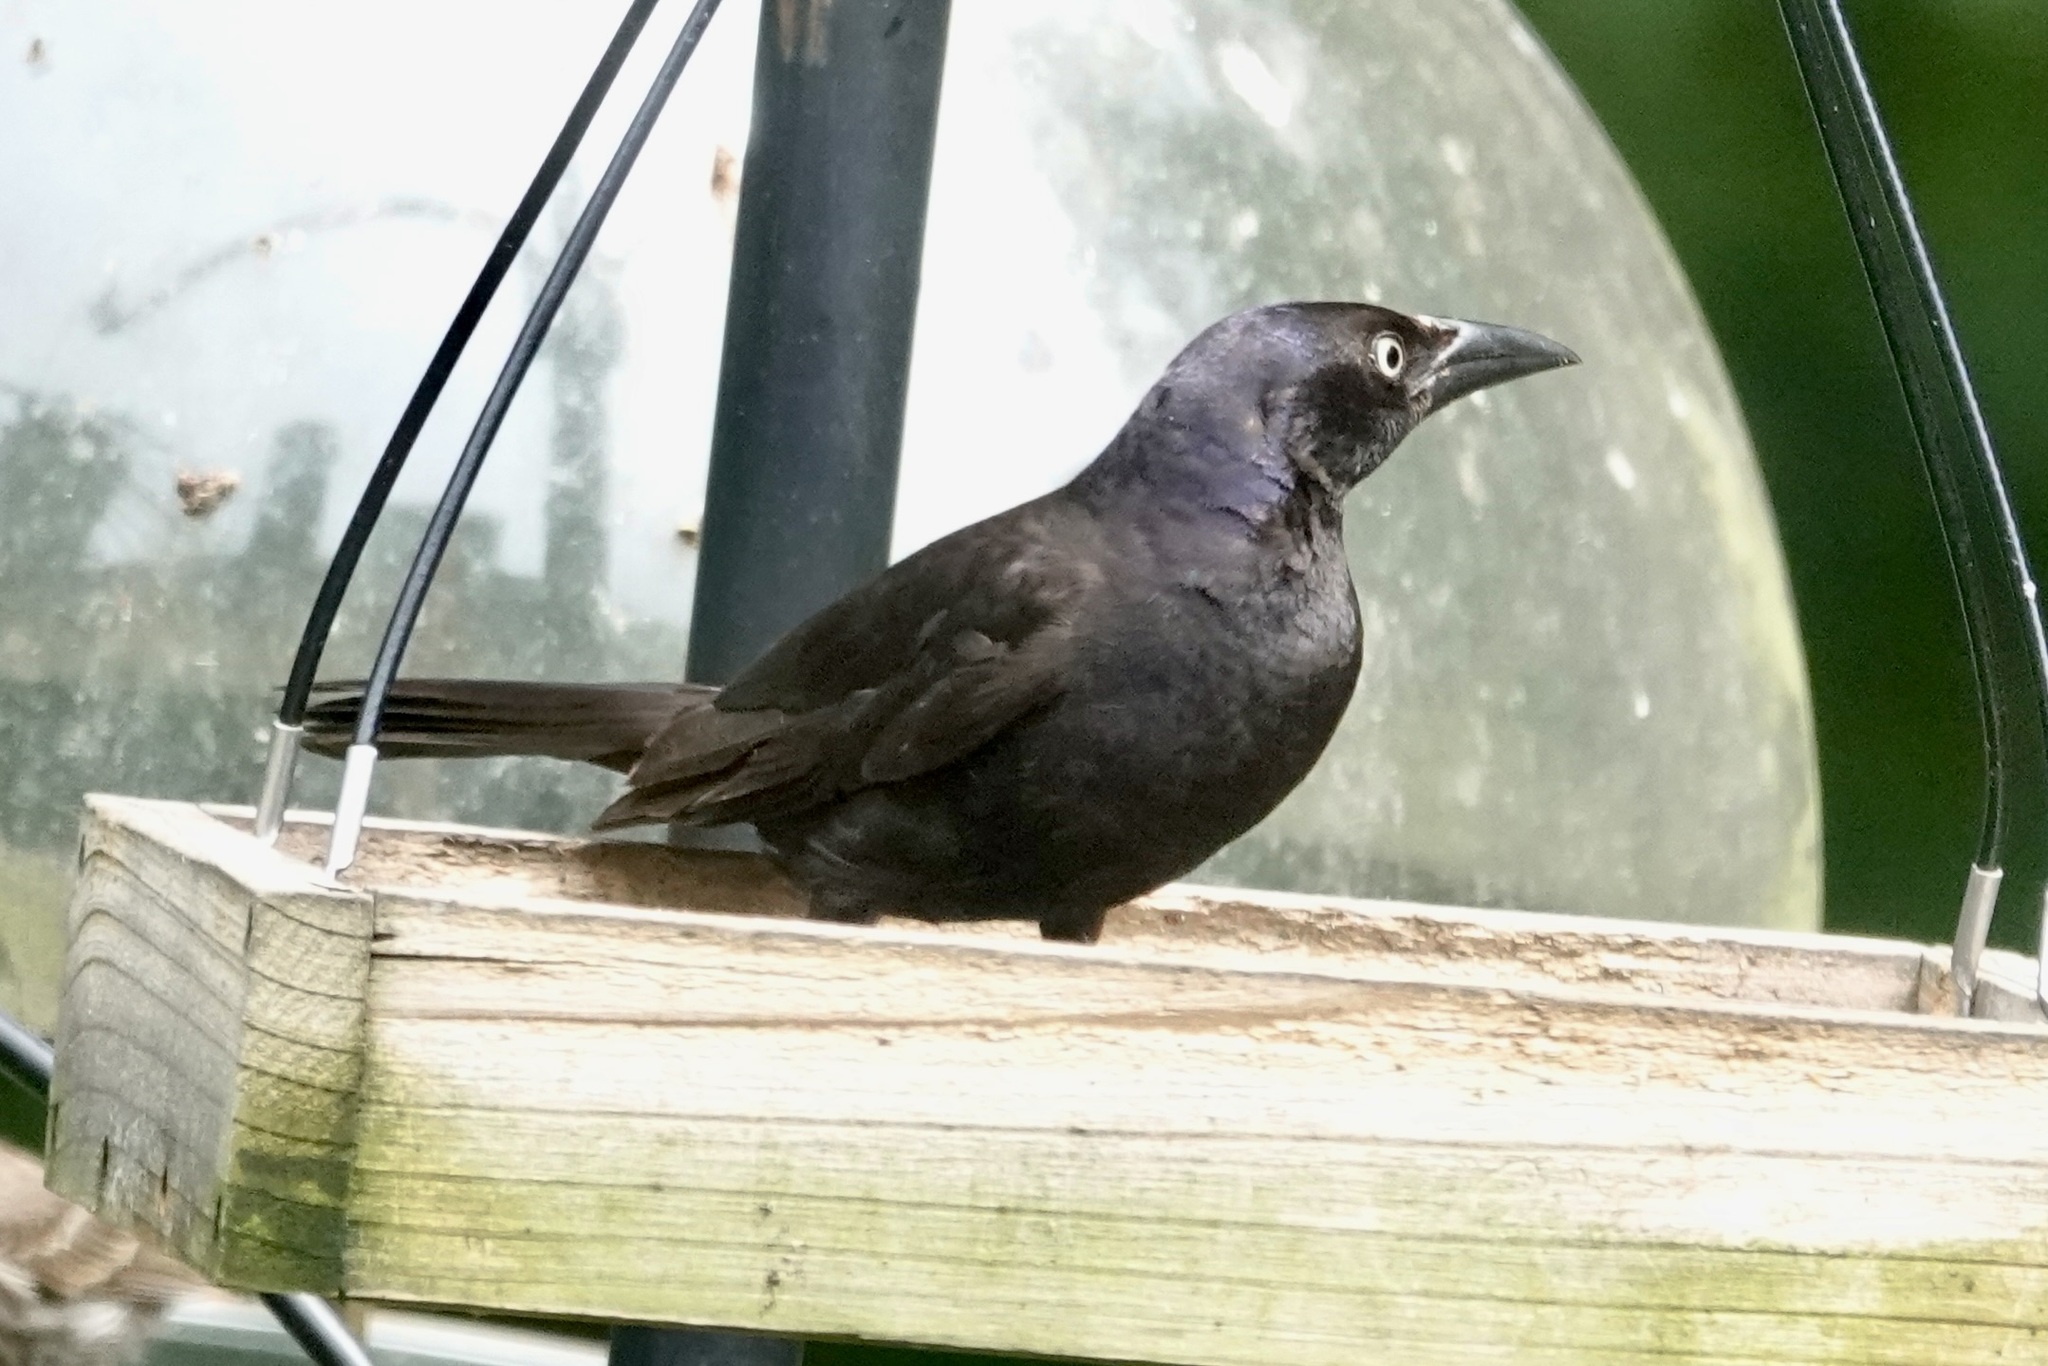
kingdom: Animalia
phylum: Chordata
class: Aves
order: Passeriformes
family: Icteridae
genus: Quiscalus
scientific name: Quiscalus quiscula
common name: Common grackle
